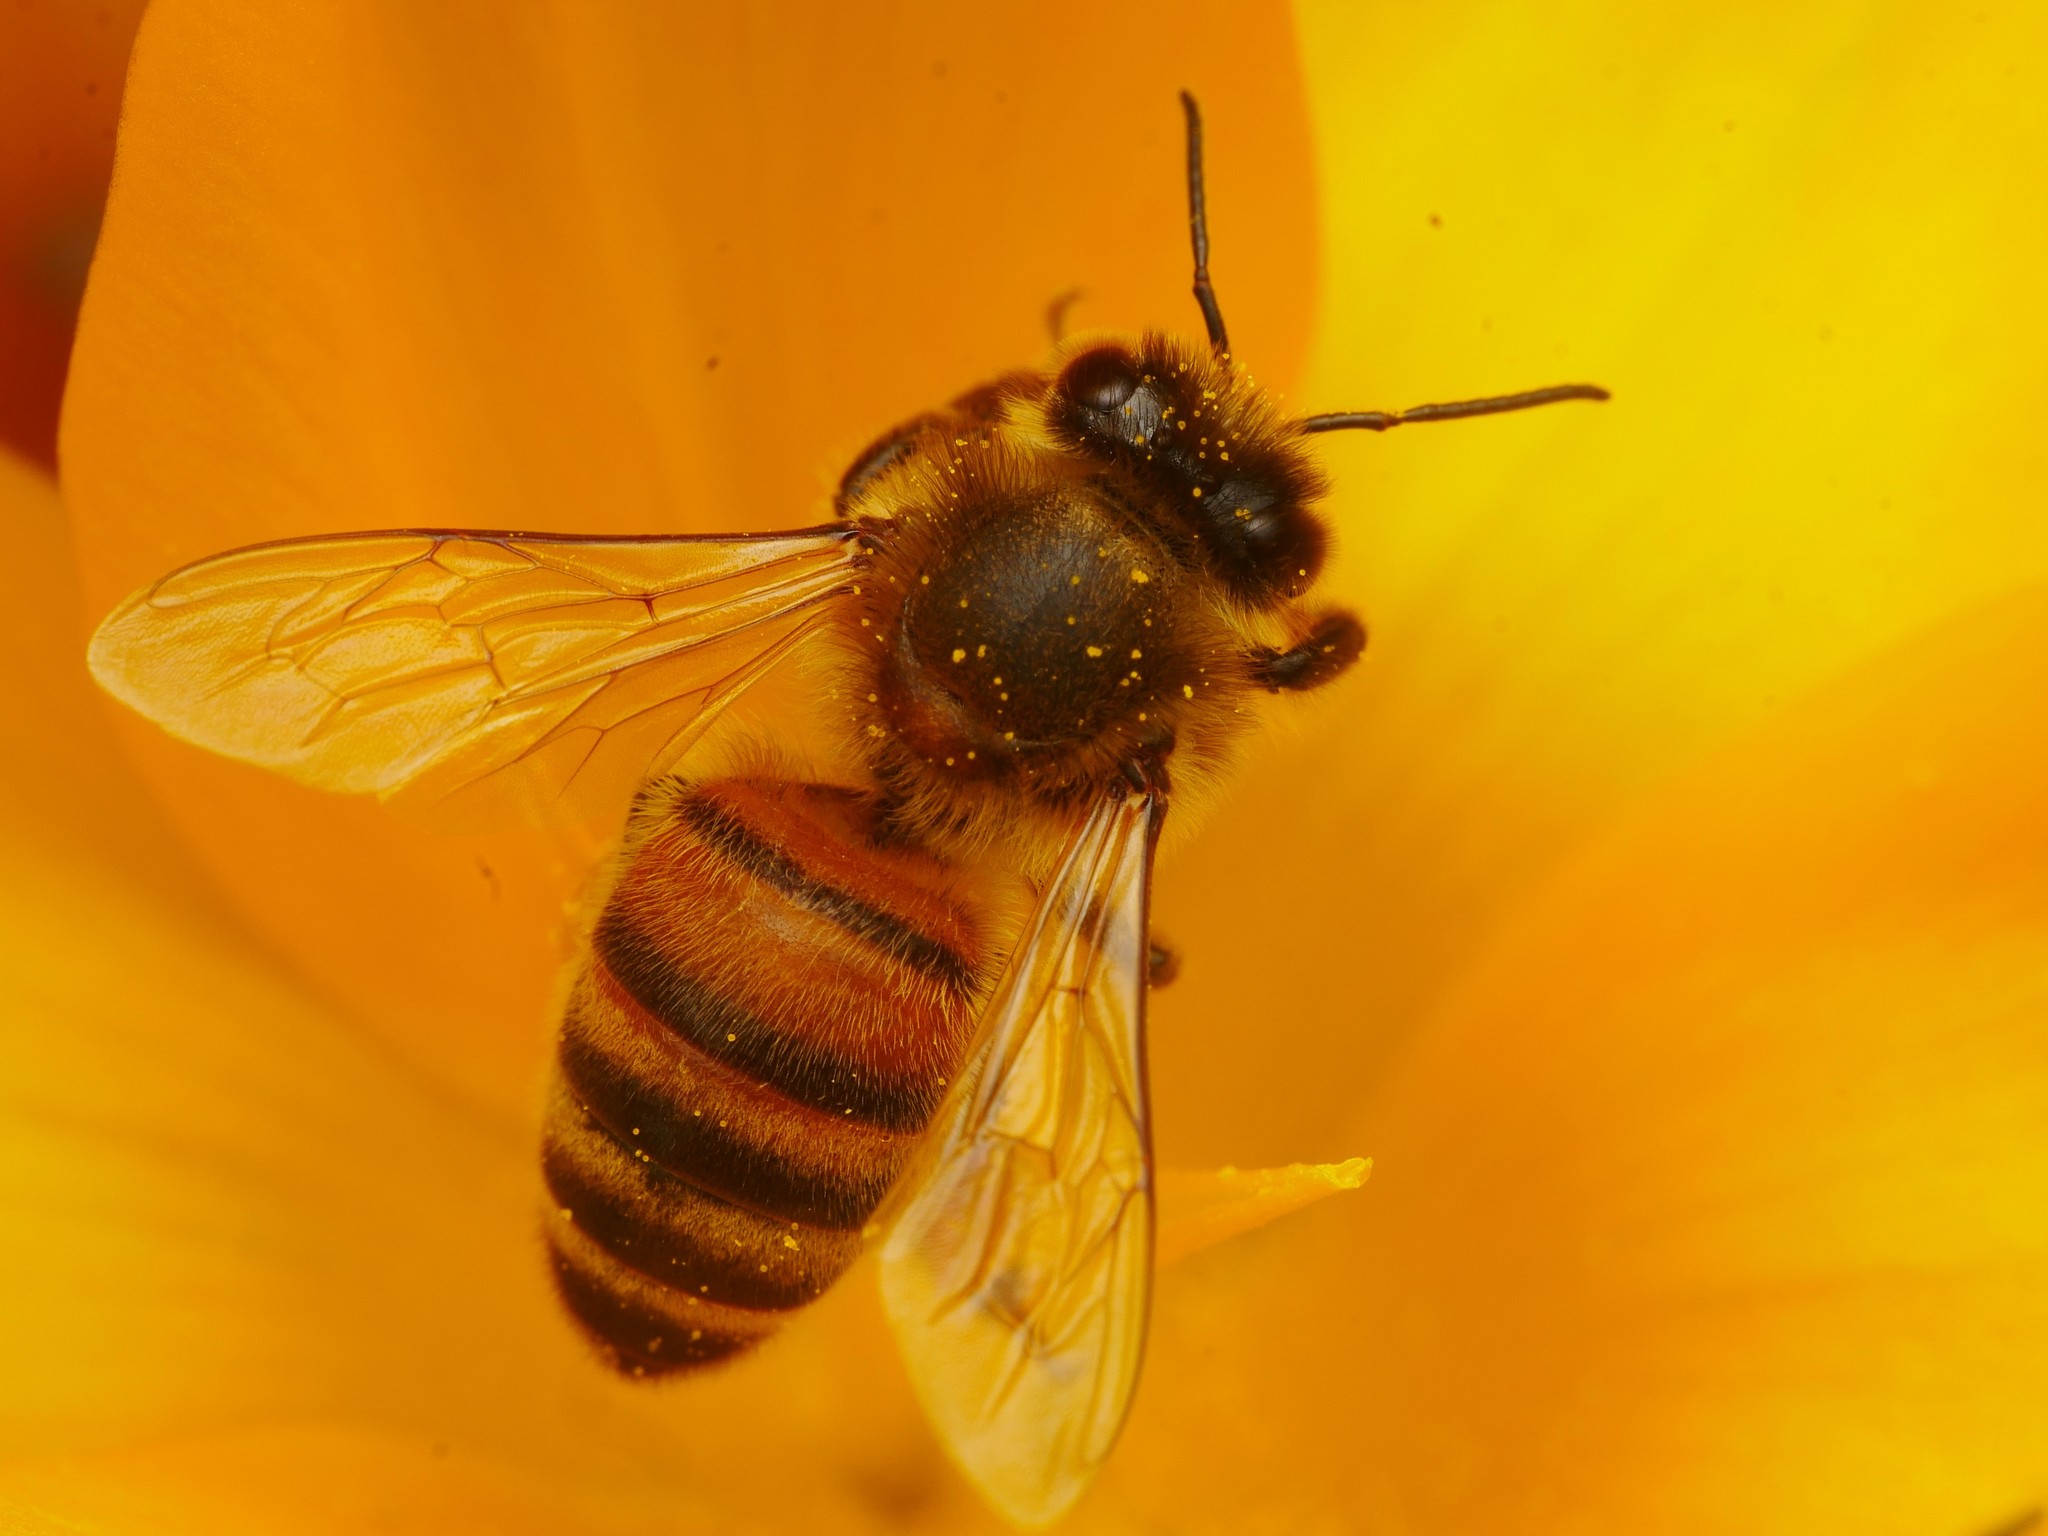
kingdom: Animalia
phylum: Arthropoda
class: Insecta
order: Hymenoptera
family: Apidae
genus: Apis
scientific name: Apis mellifera
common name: Honey bee
